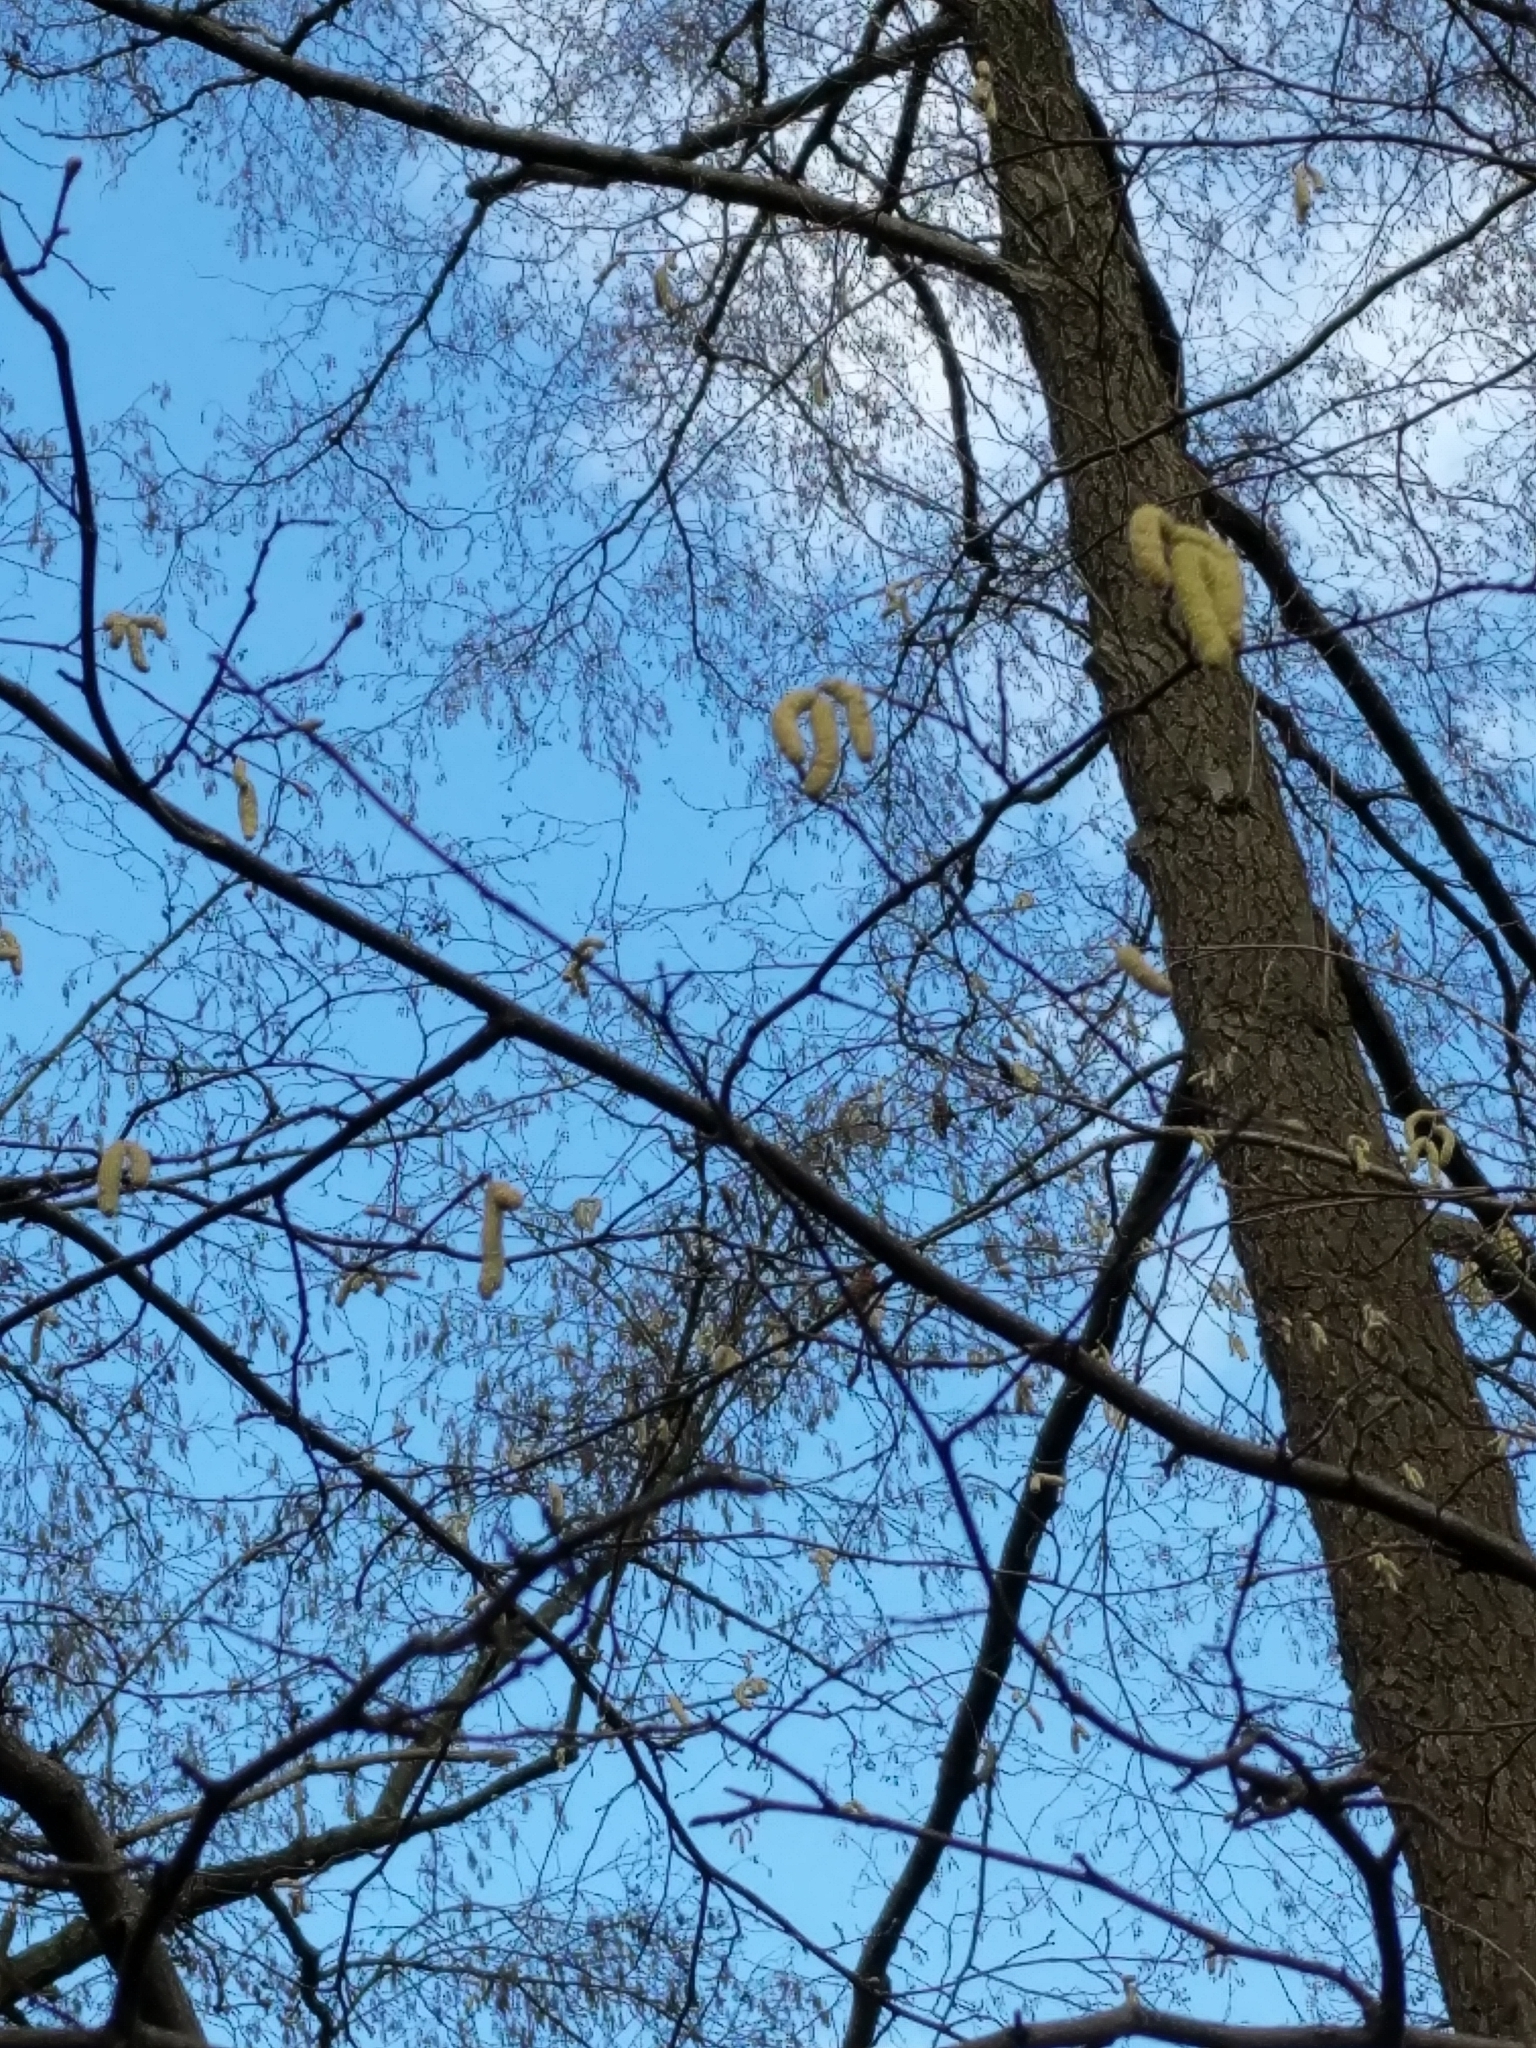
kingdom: Plantae
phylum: Tracheophyta
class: Magnoliopsida
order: Fagales
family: Betulaceae
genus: Corylus
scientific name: Corylus avellana
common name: European hazel
